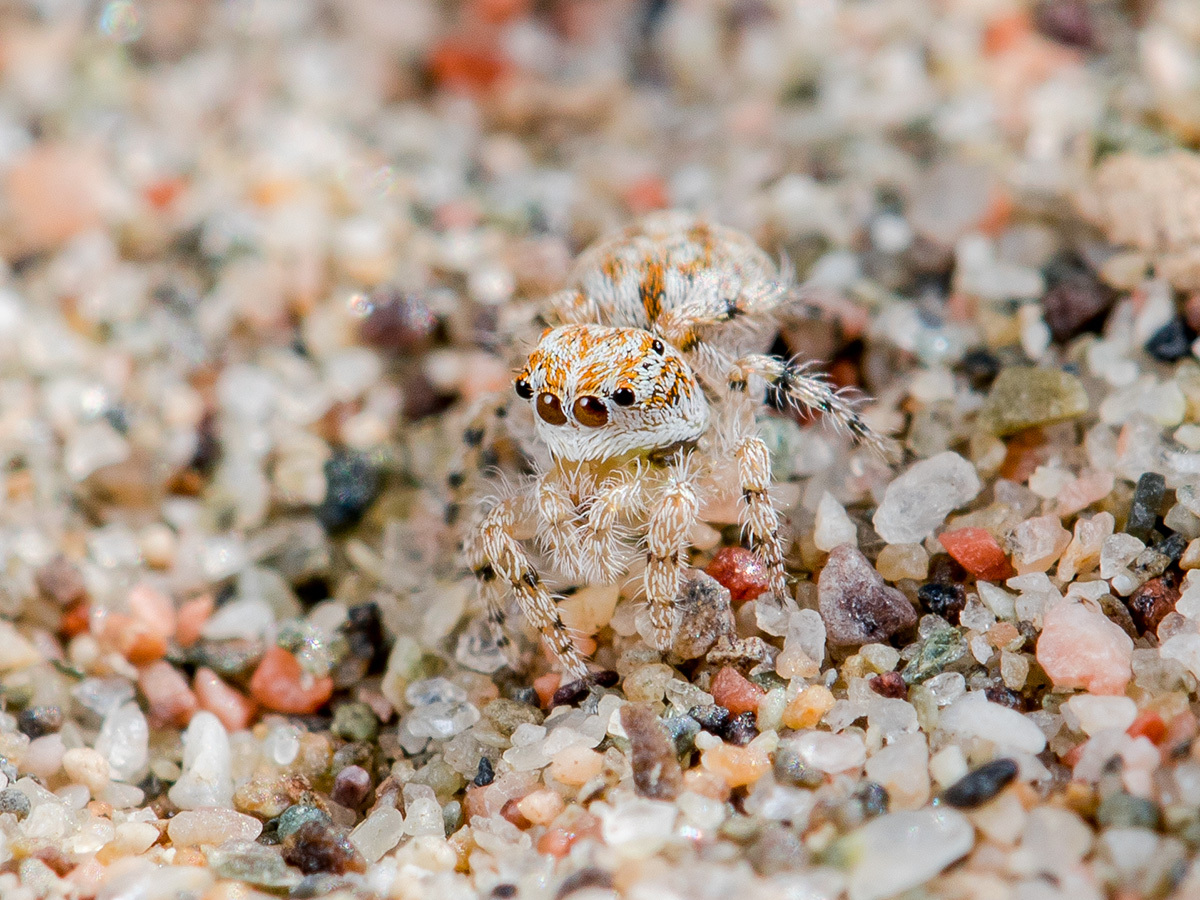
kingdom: Animalia
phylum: Arthropoda
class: Arachnida
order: Araneae
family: Salticidae
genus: Yllenus
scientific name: Yllenus turkestanicus
